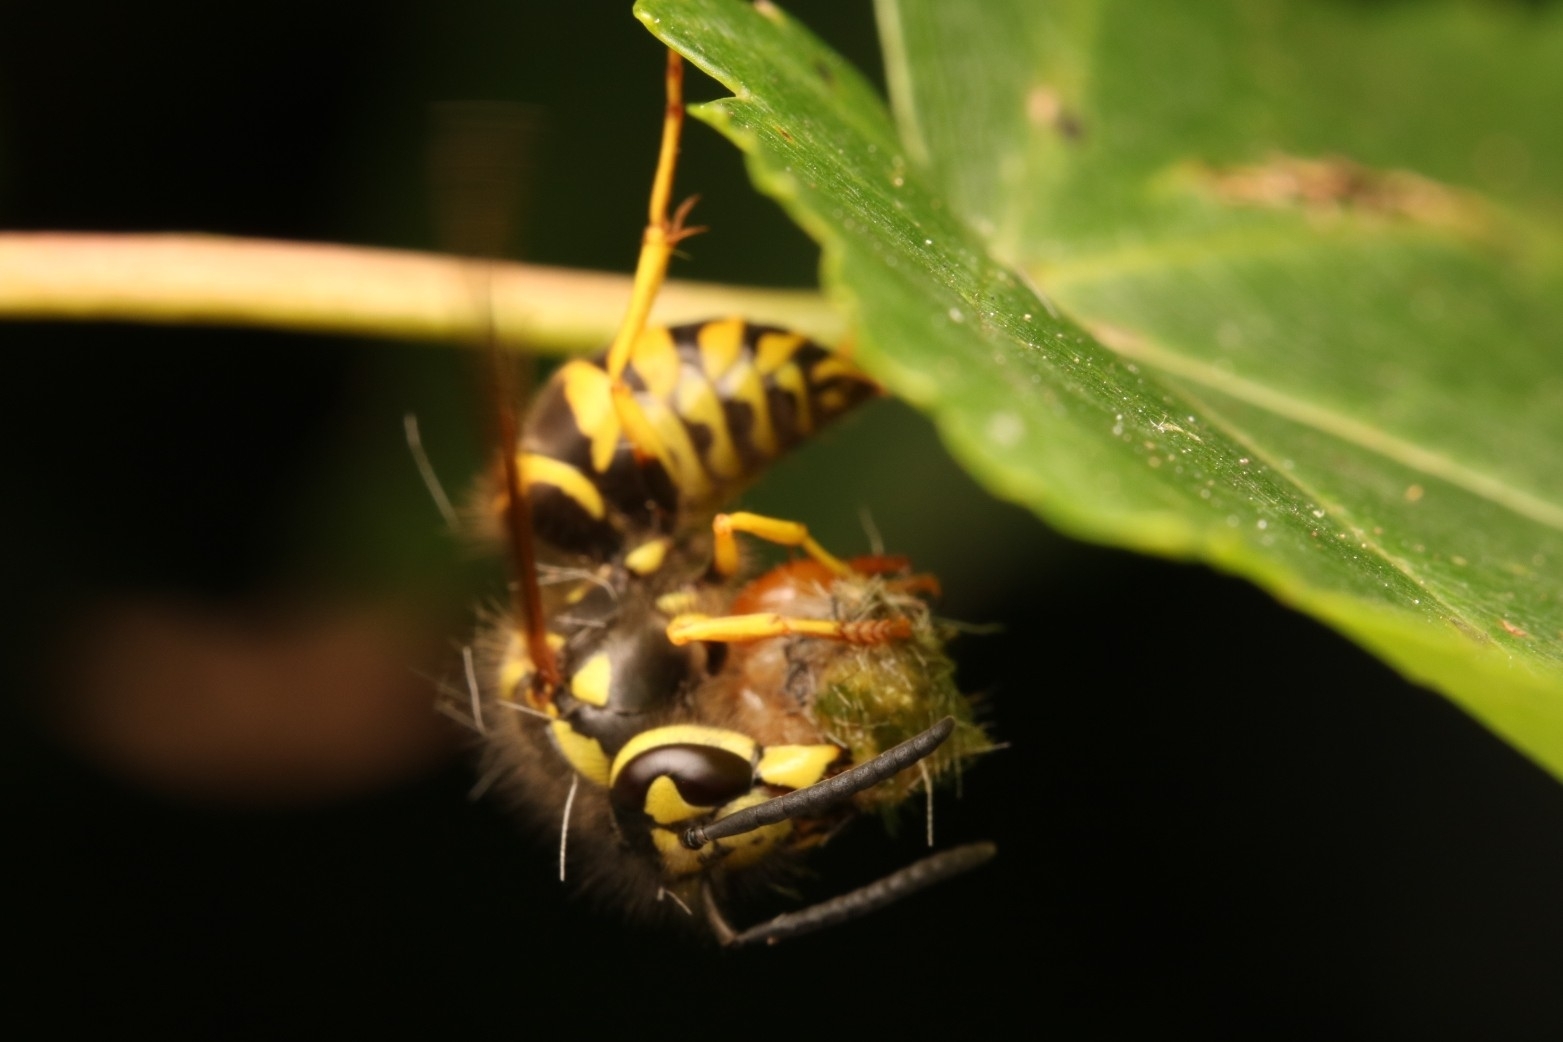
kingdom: Animalia
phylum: Arthropoda
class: Insecta
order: Hymenoptera
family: Vespidae
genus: Vespula
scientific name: Vespula maculifrons
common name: Eastern yellowjacket
